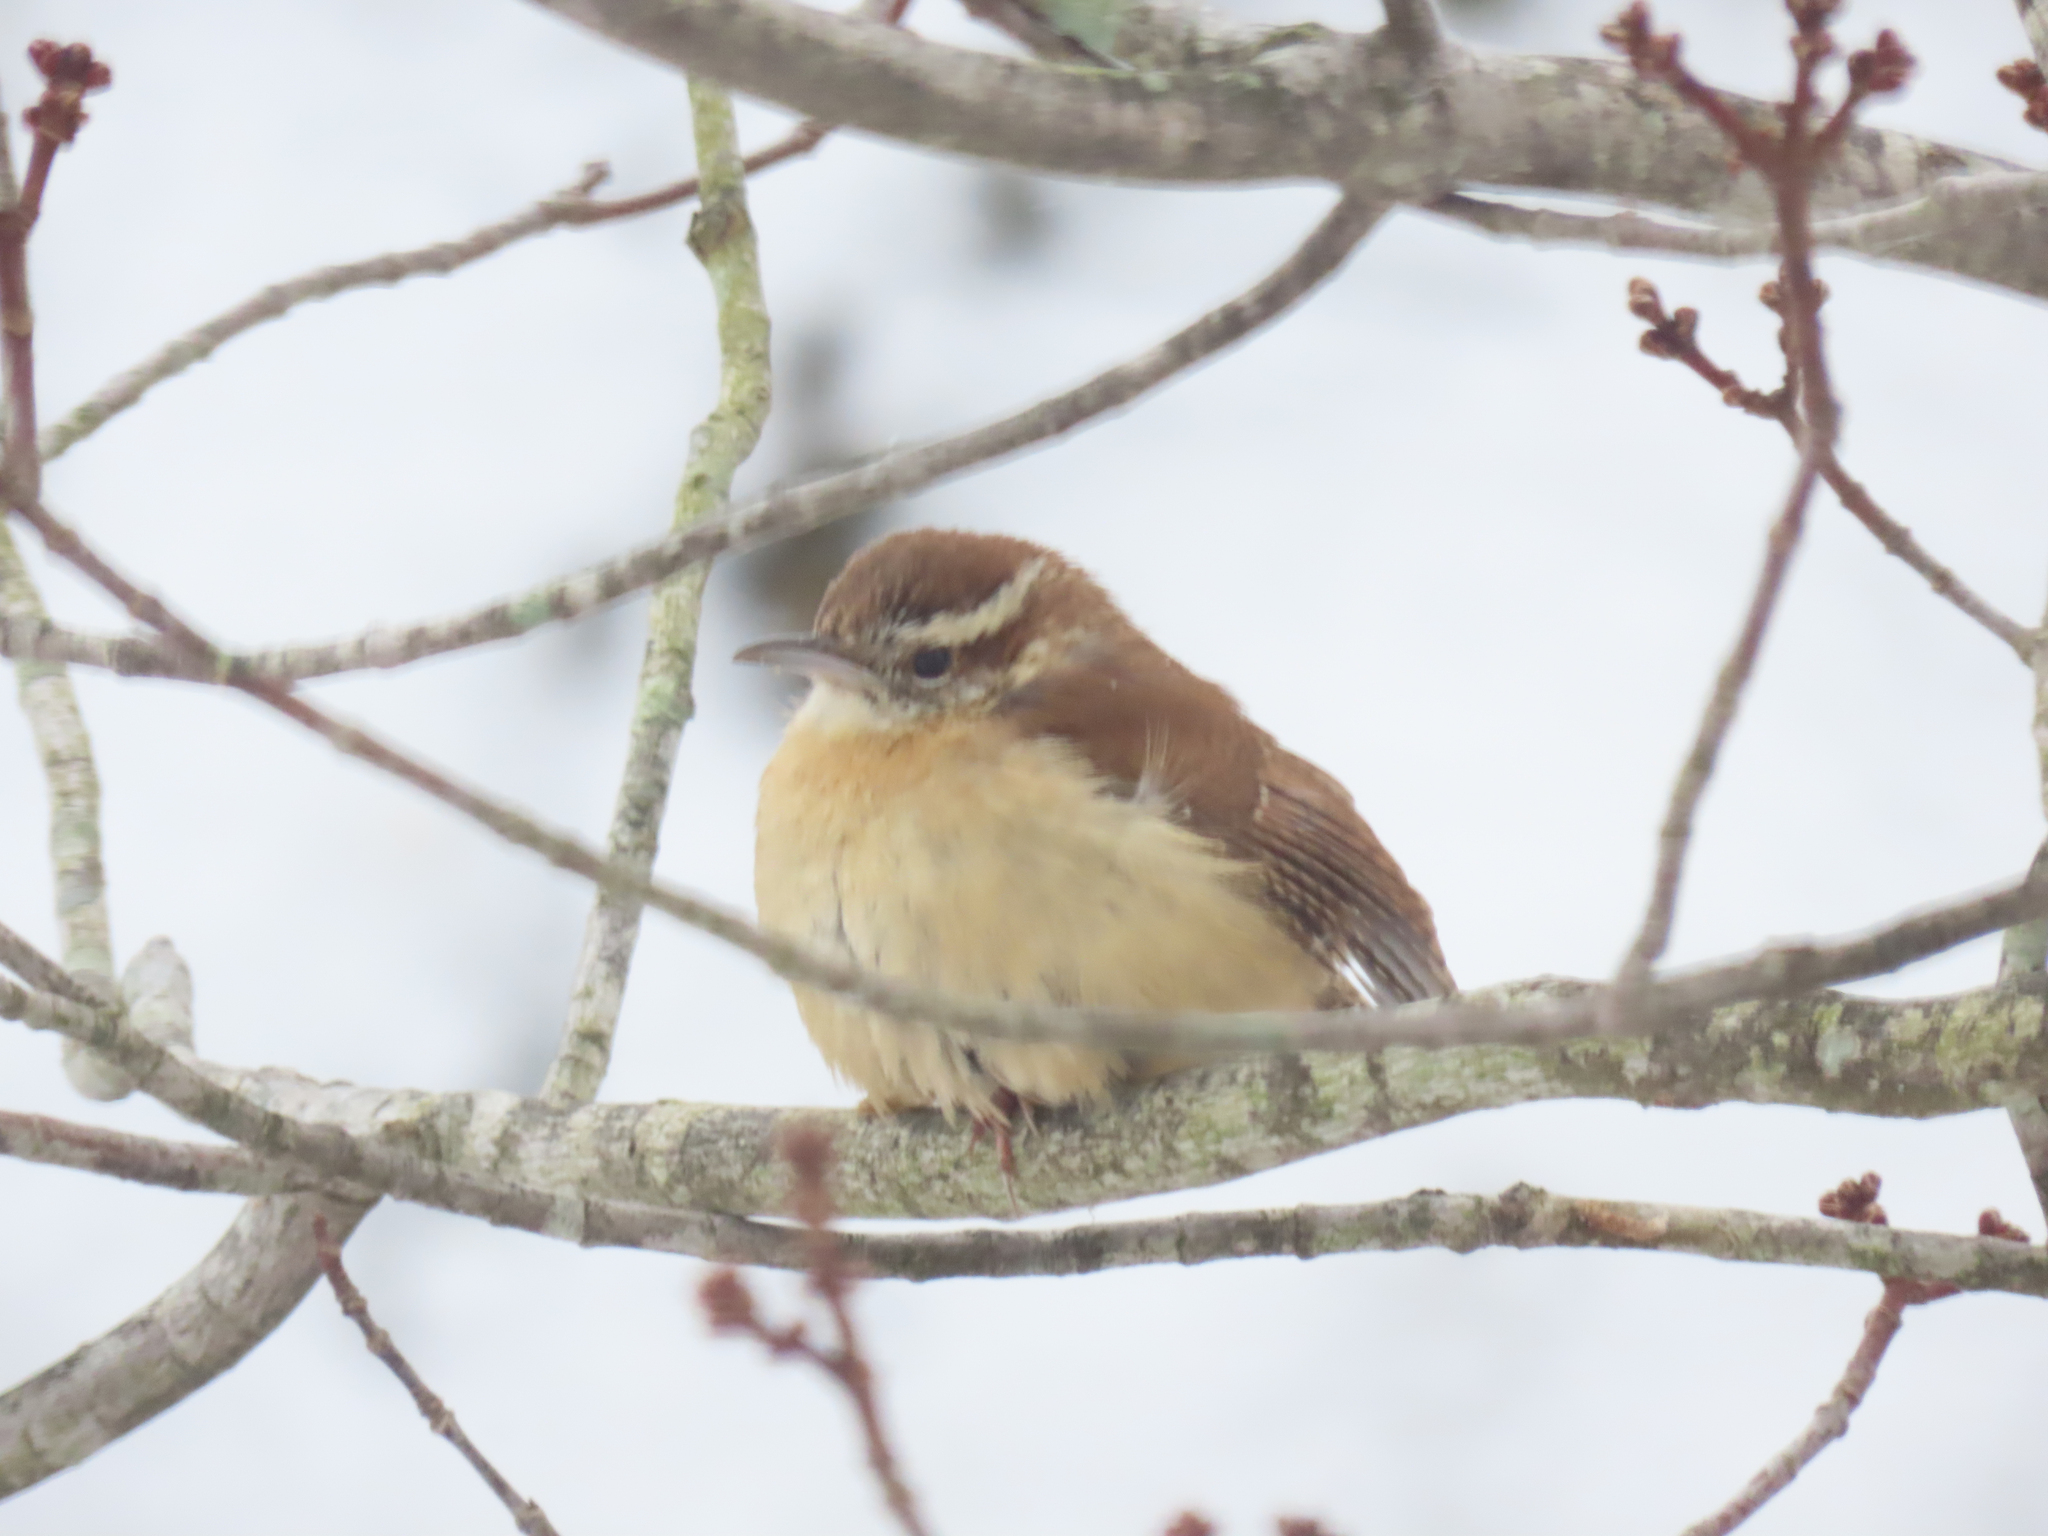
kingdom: Animalia
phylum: Chordata
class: Aves
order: Passeriformes
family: Troglodytidae
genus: Thryothorus
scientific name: Thryothorus ludovicianus
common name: Carolina wren
